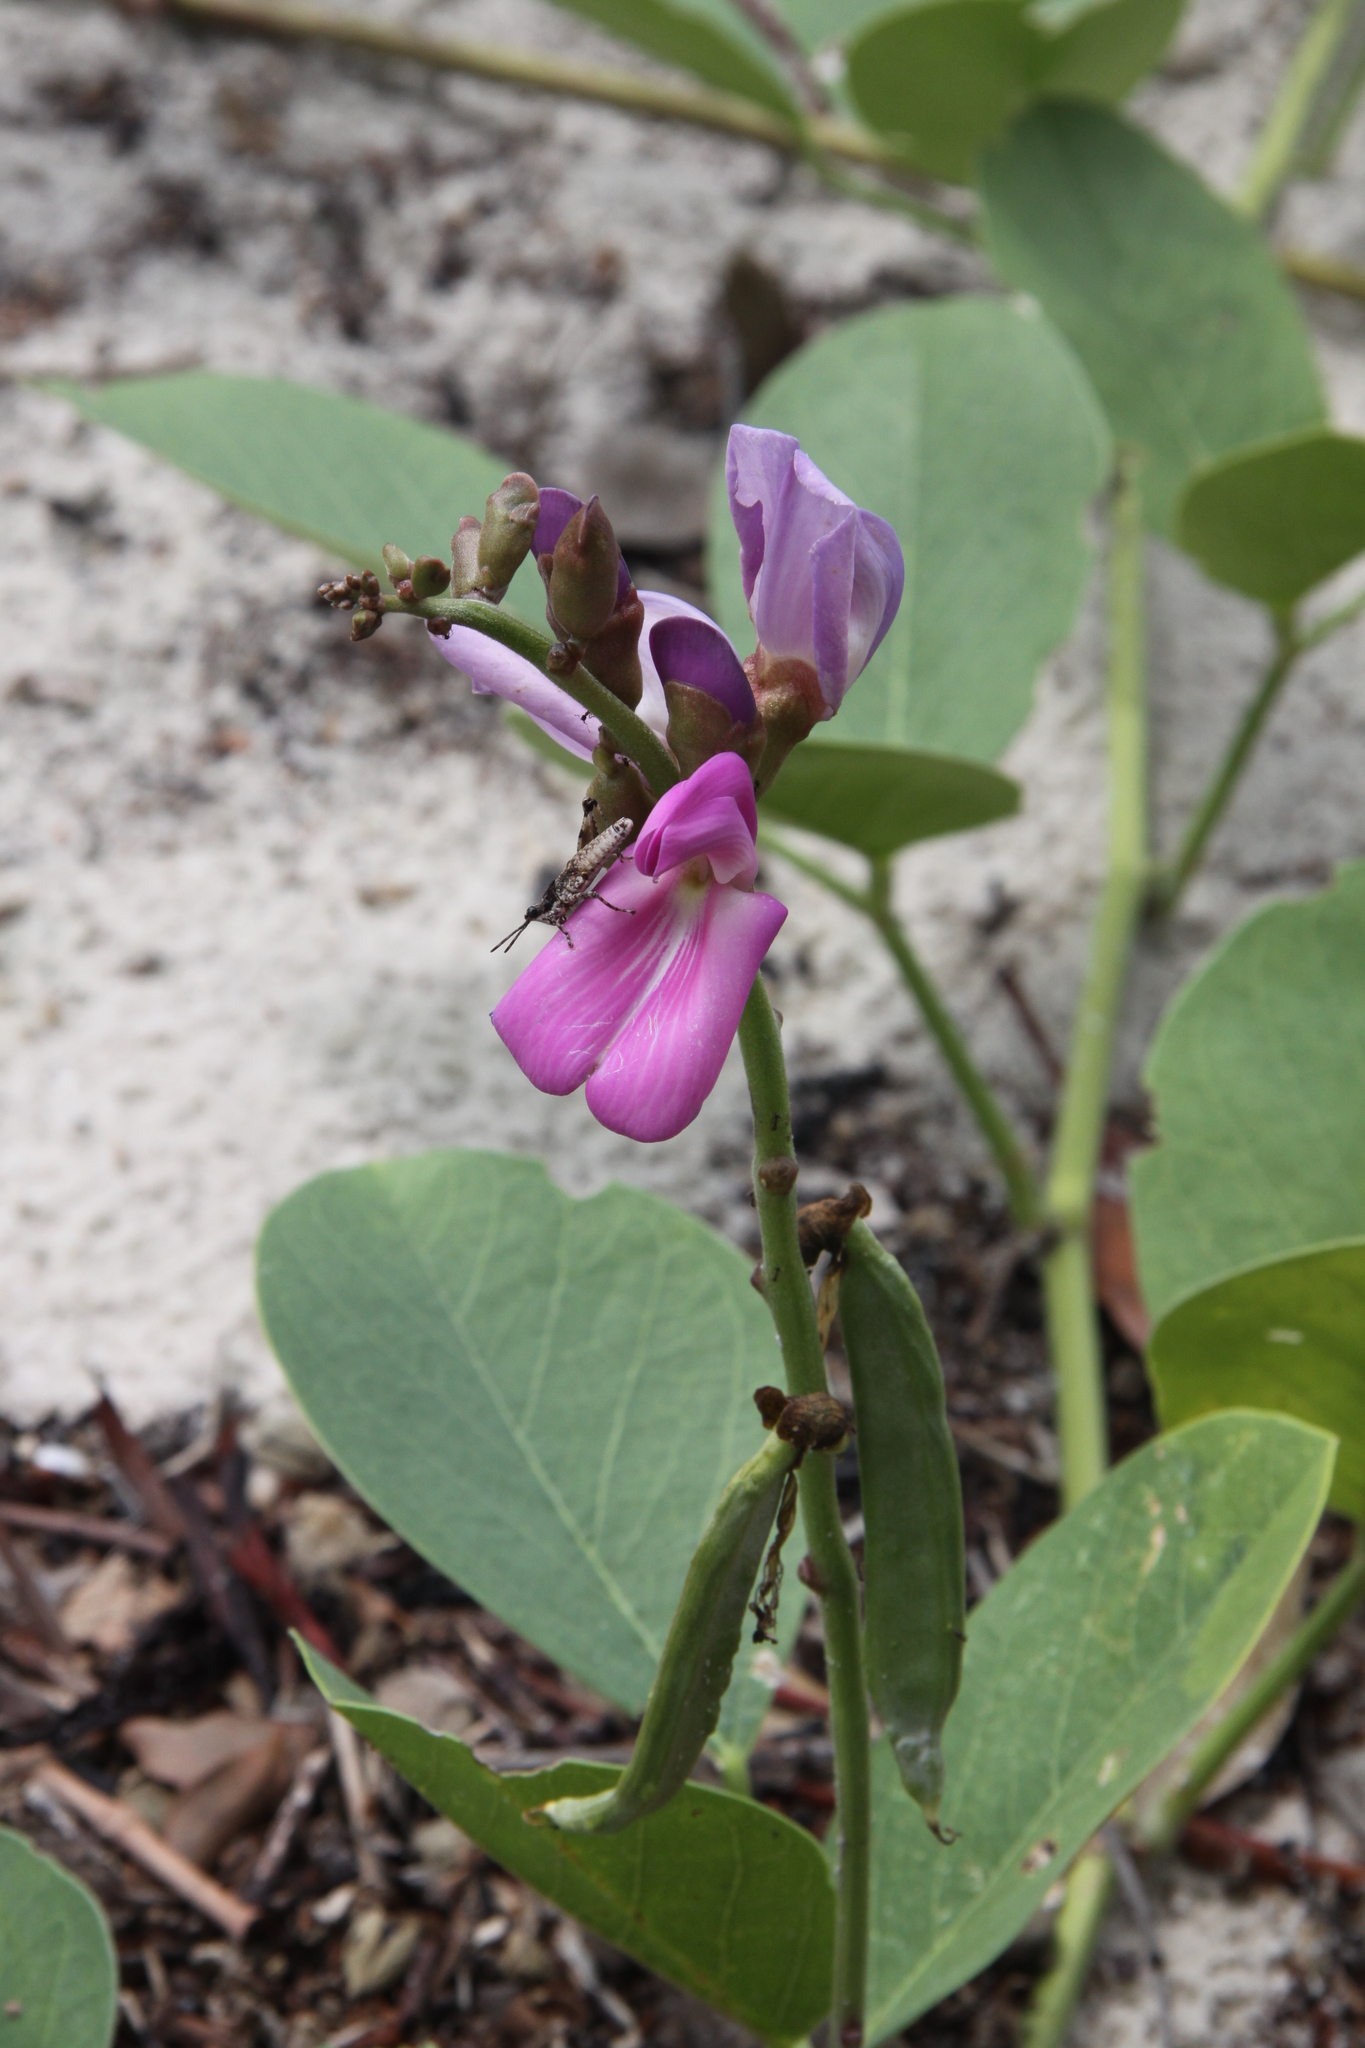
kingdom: Plantae
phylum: Tracheophyta
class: Magnoliopsida
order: Fabales
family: Fabaceae
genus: Canavalia
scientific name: Canavalia rosea
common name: Beach-bean
